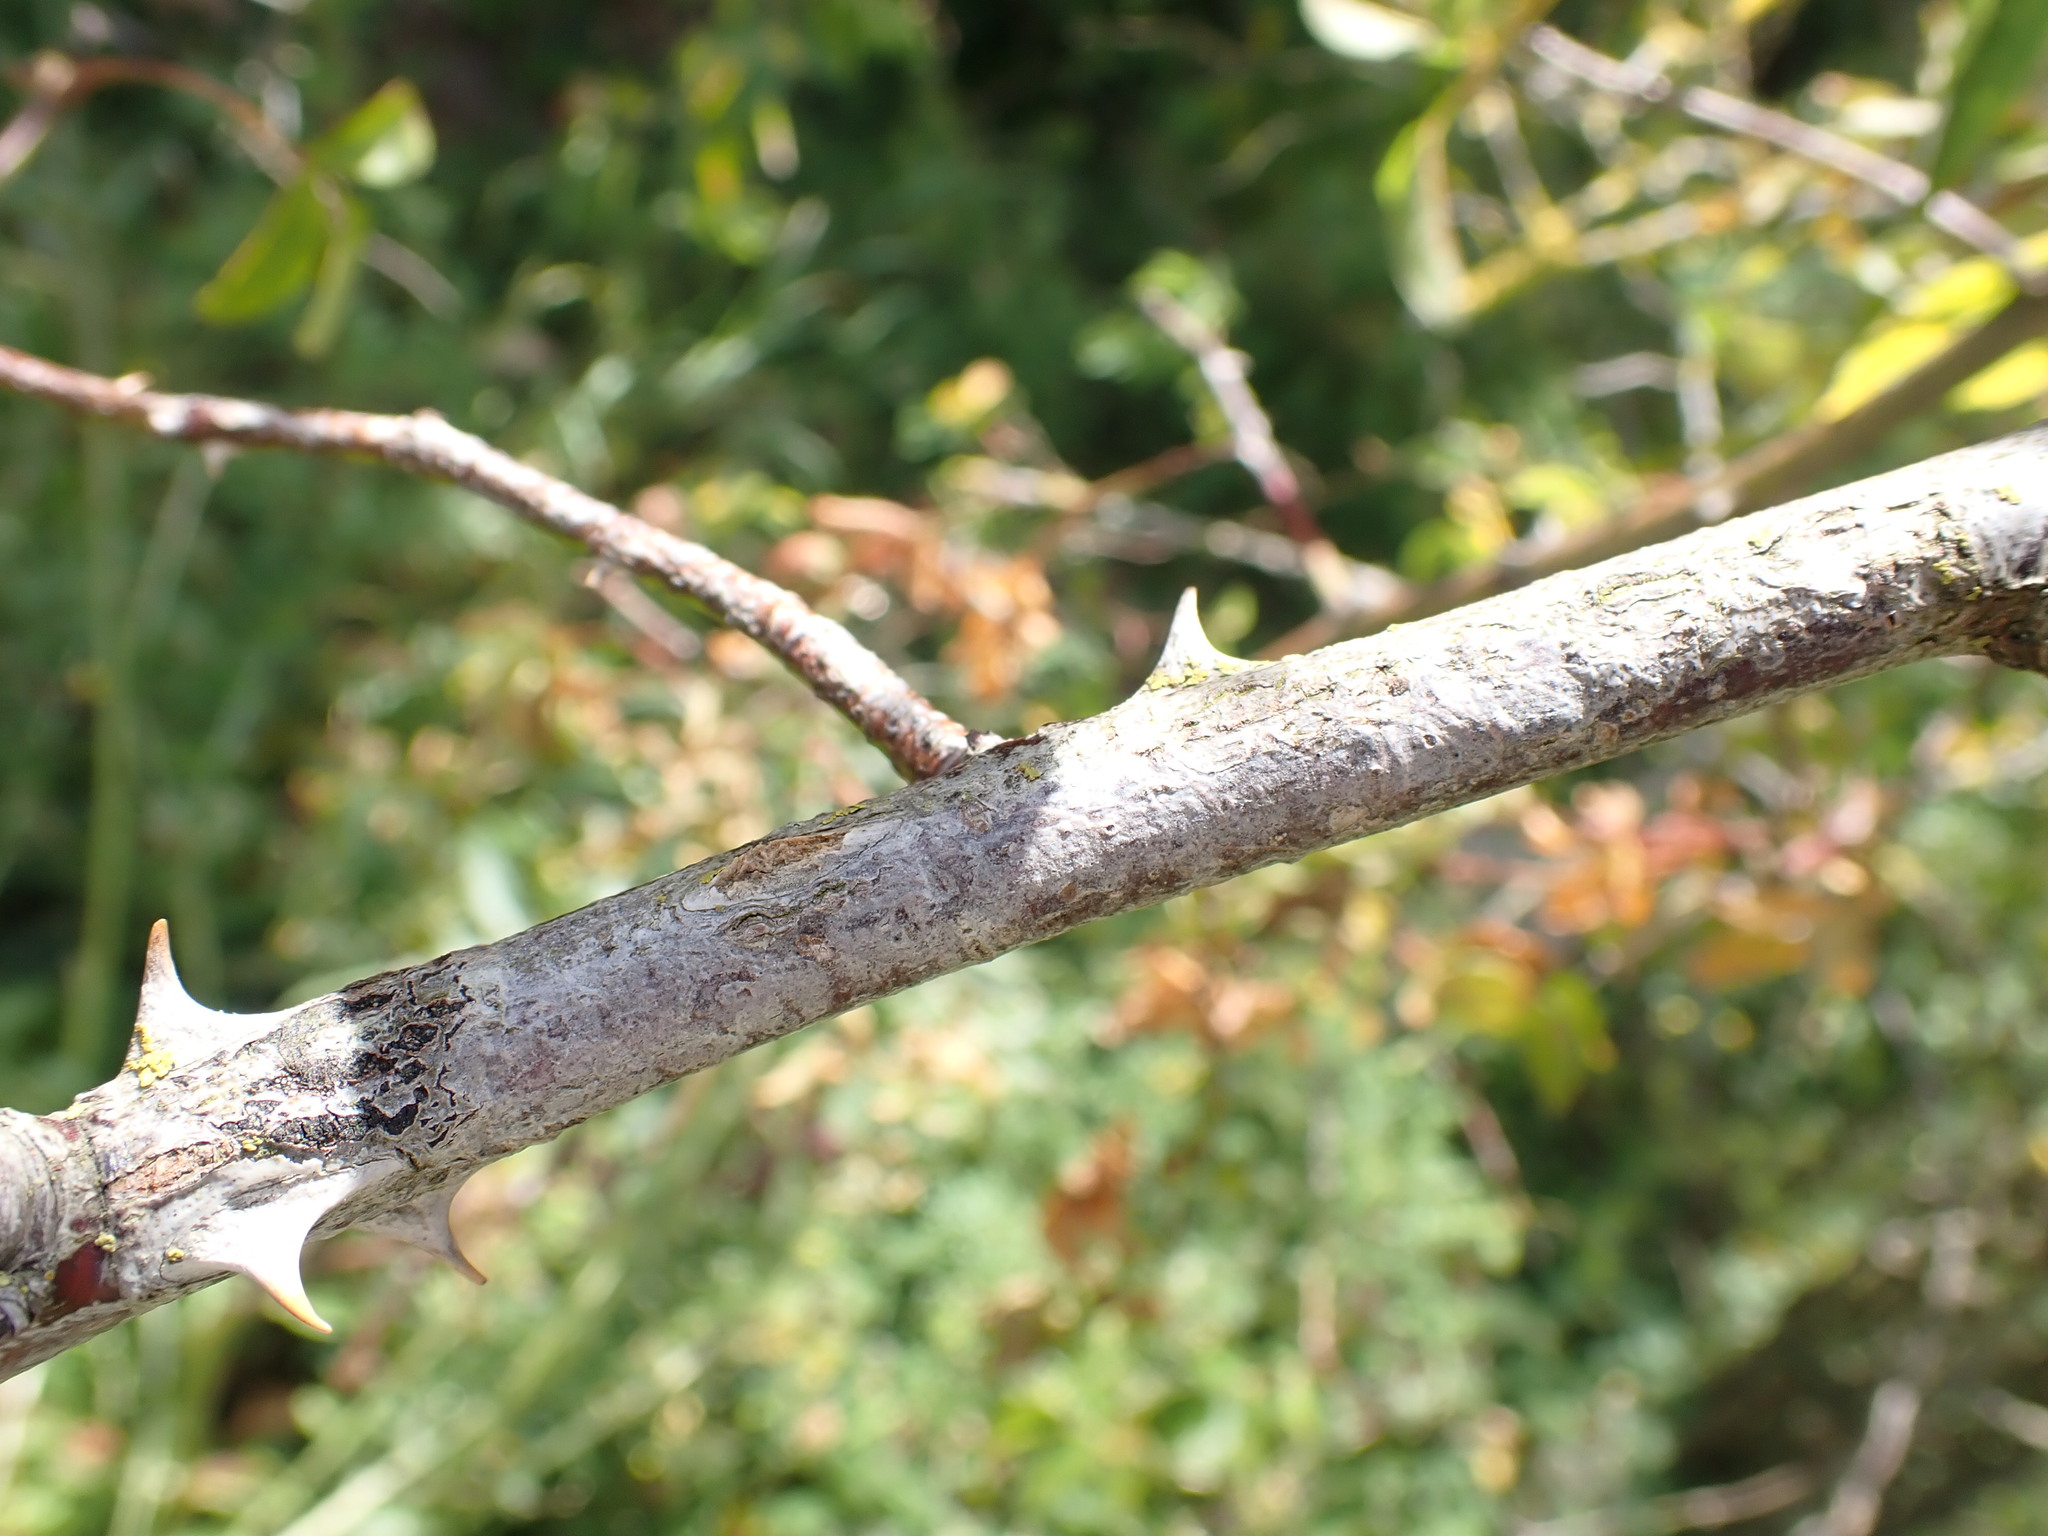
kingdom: Plantae
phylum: Tracheophyta
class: Magnoliopsida
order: Rosales
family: Rosaceae
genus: Rosa
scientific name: Rosa canina
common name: Dog rose
